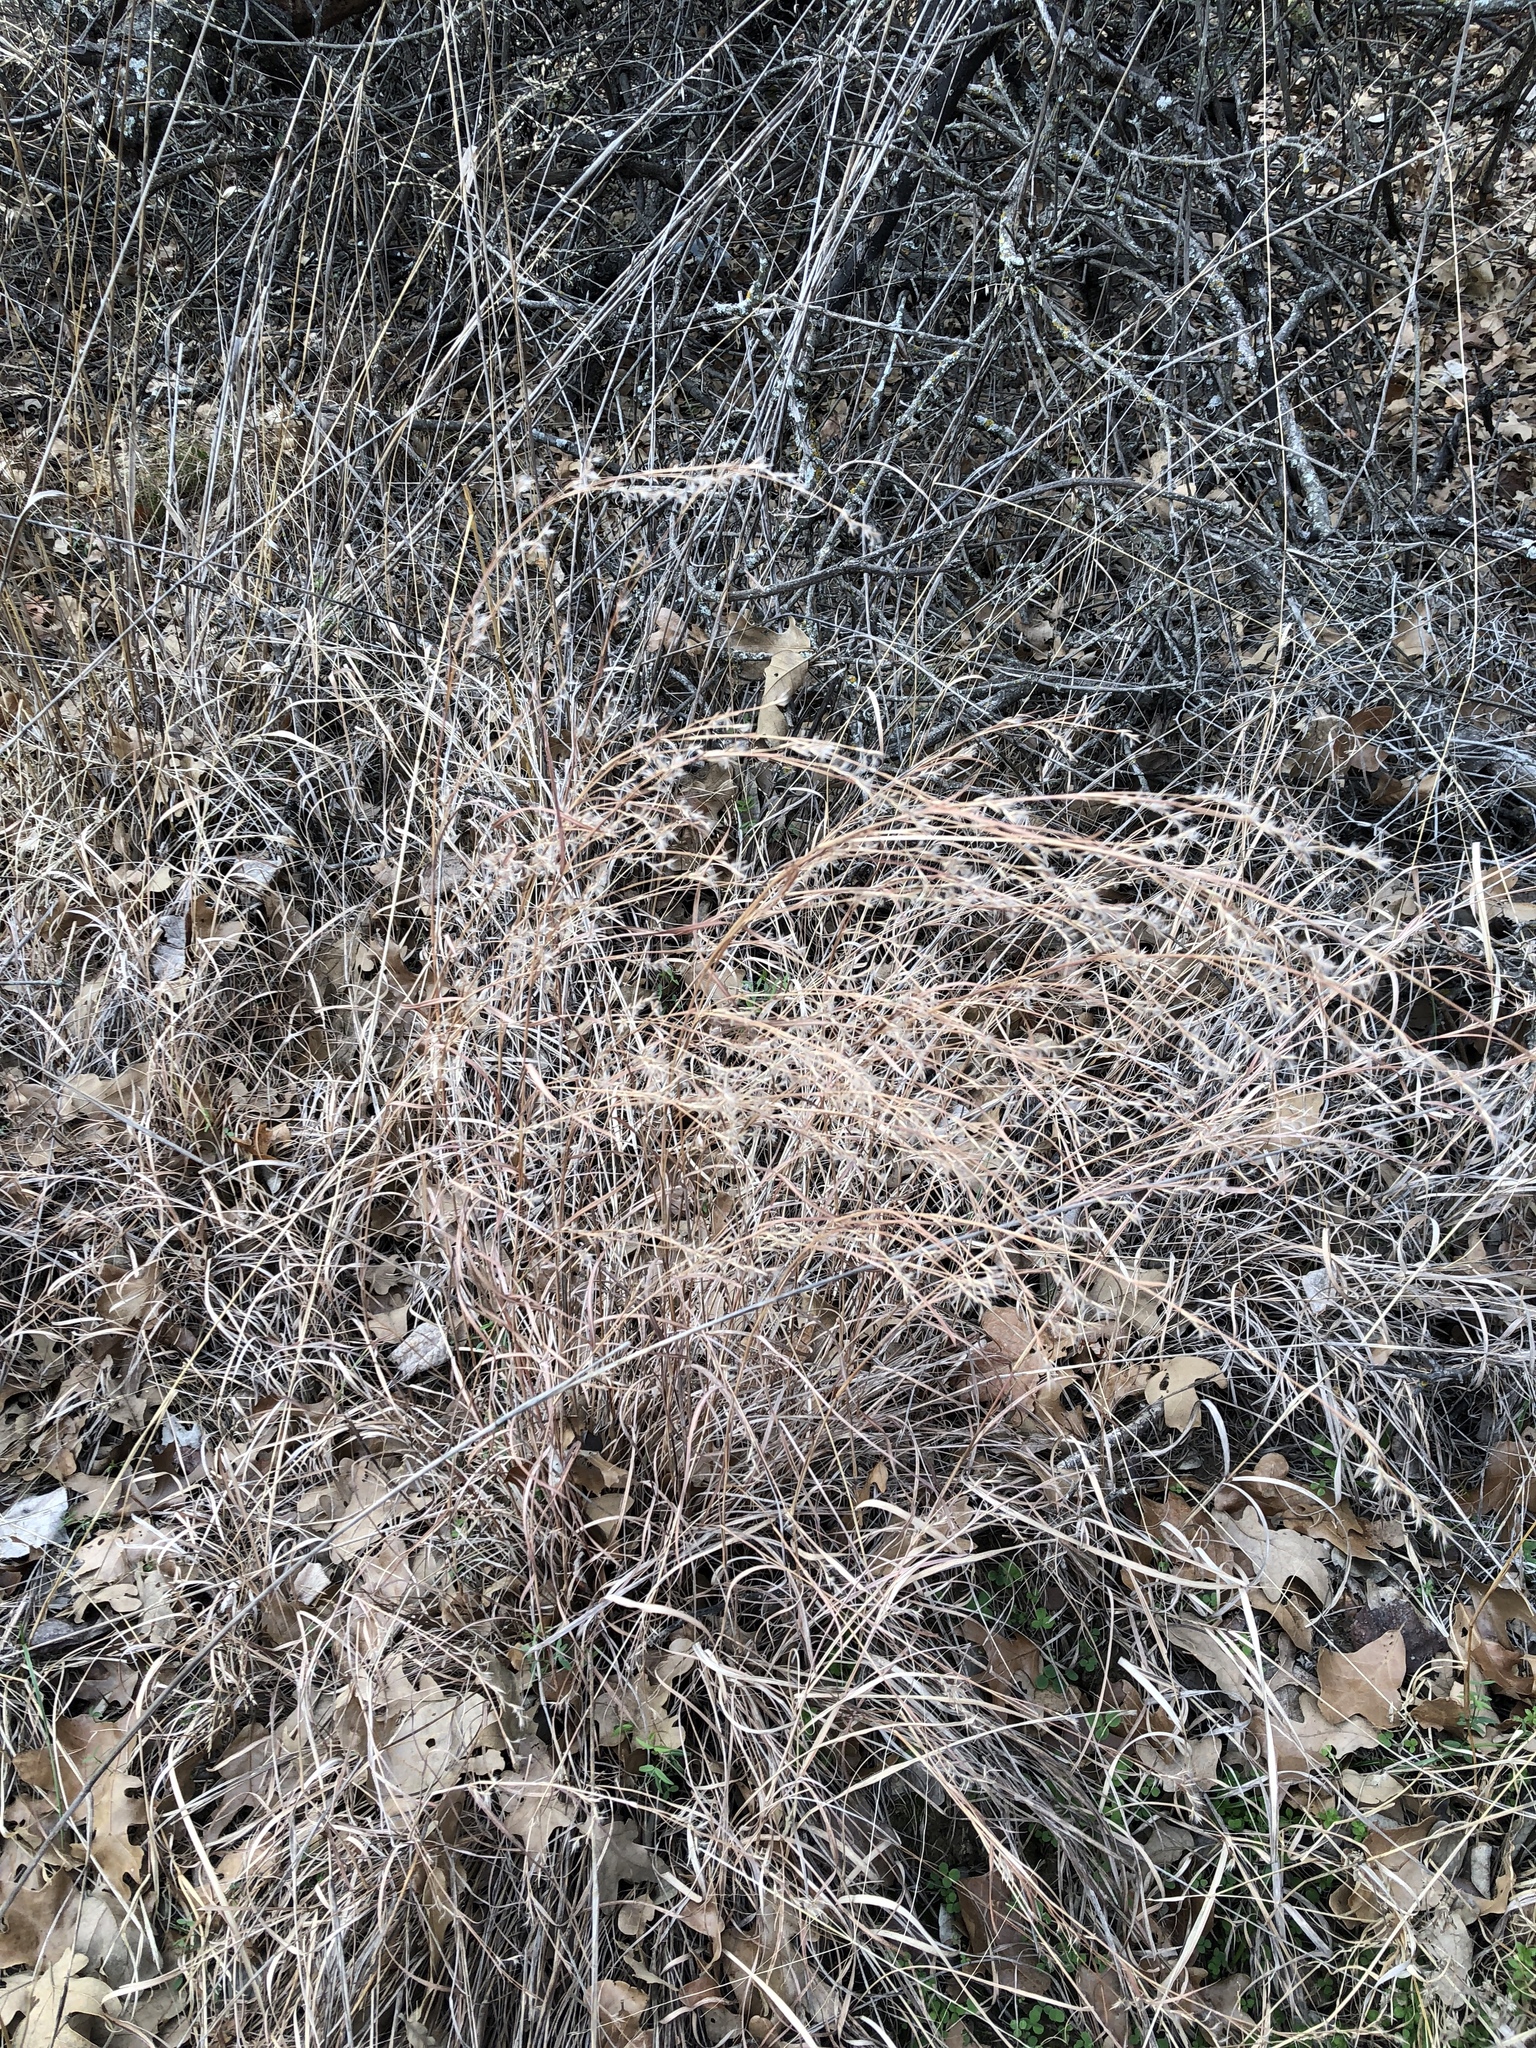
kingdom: Plantae
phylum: Tracheophyta
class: Liliopsida
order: Poales
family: Poaceae
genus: Schizachyrium
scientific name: Schizachyrium scoparium
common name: Little bluestem
